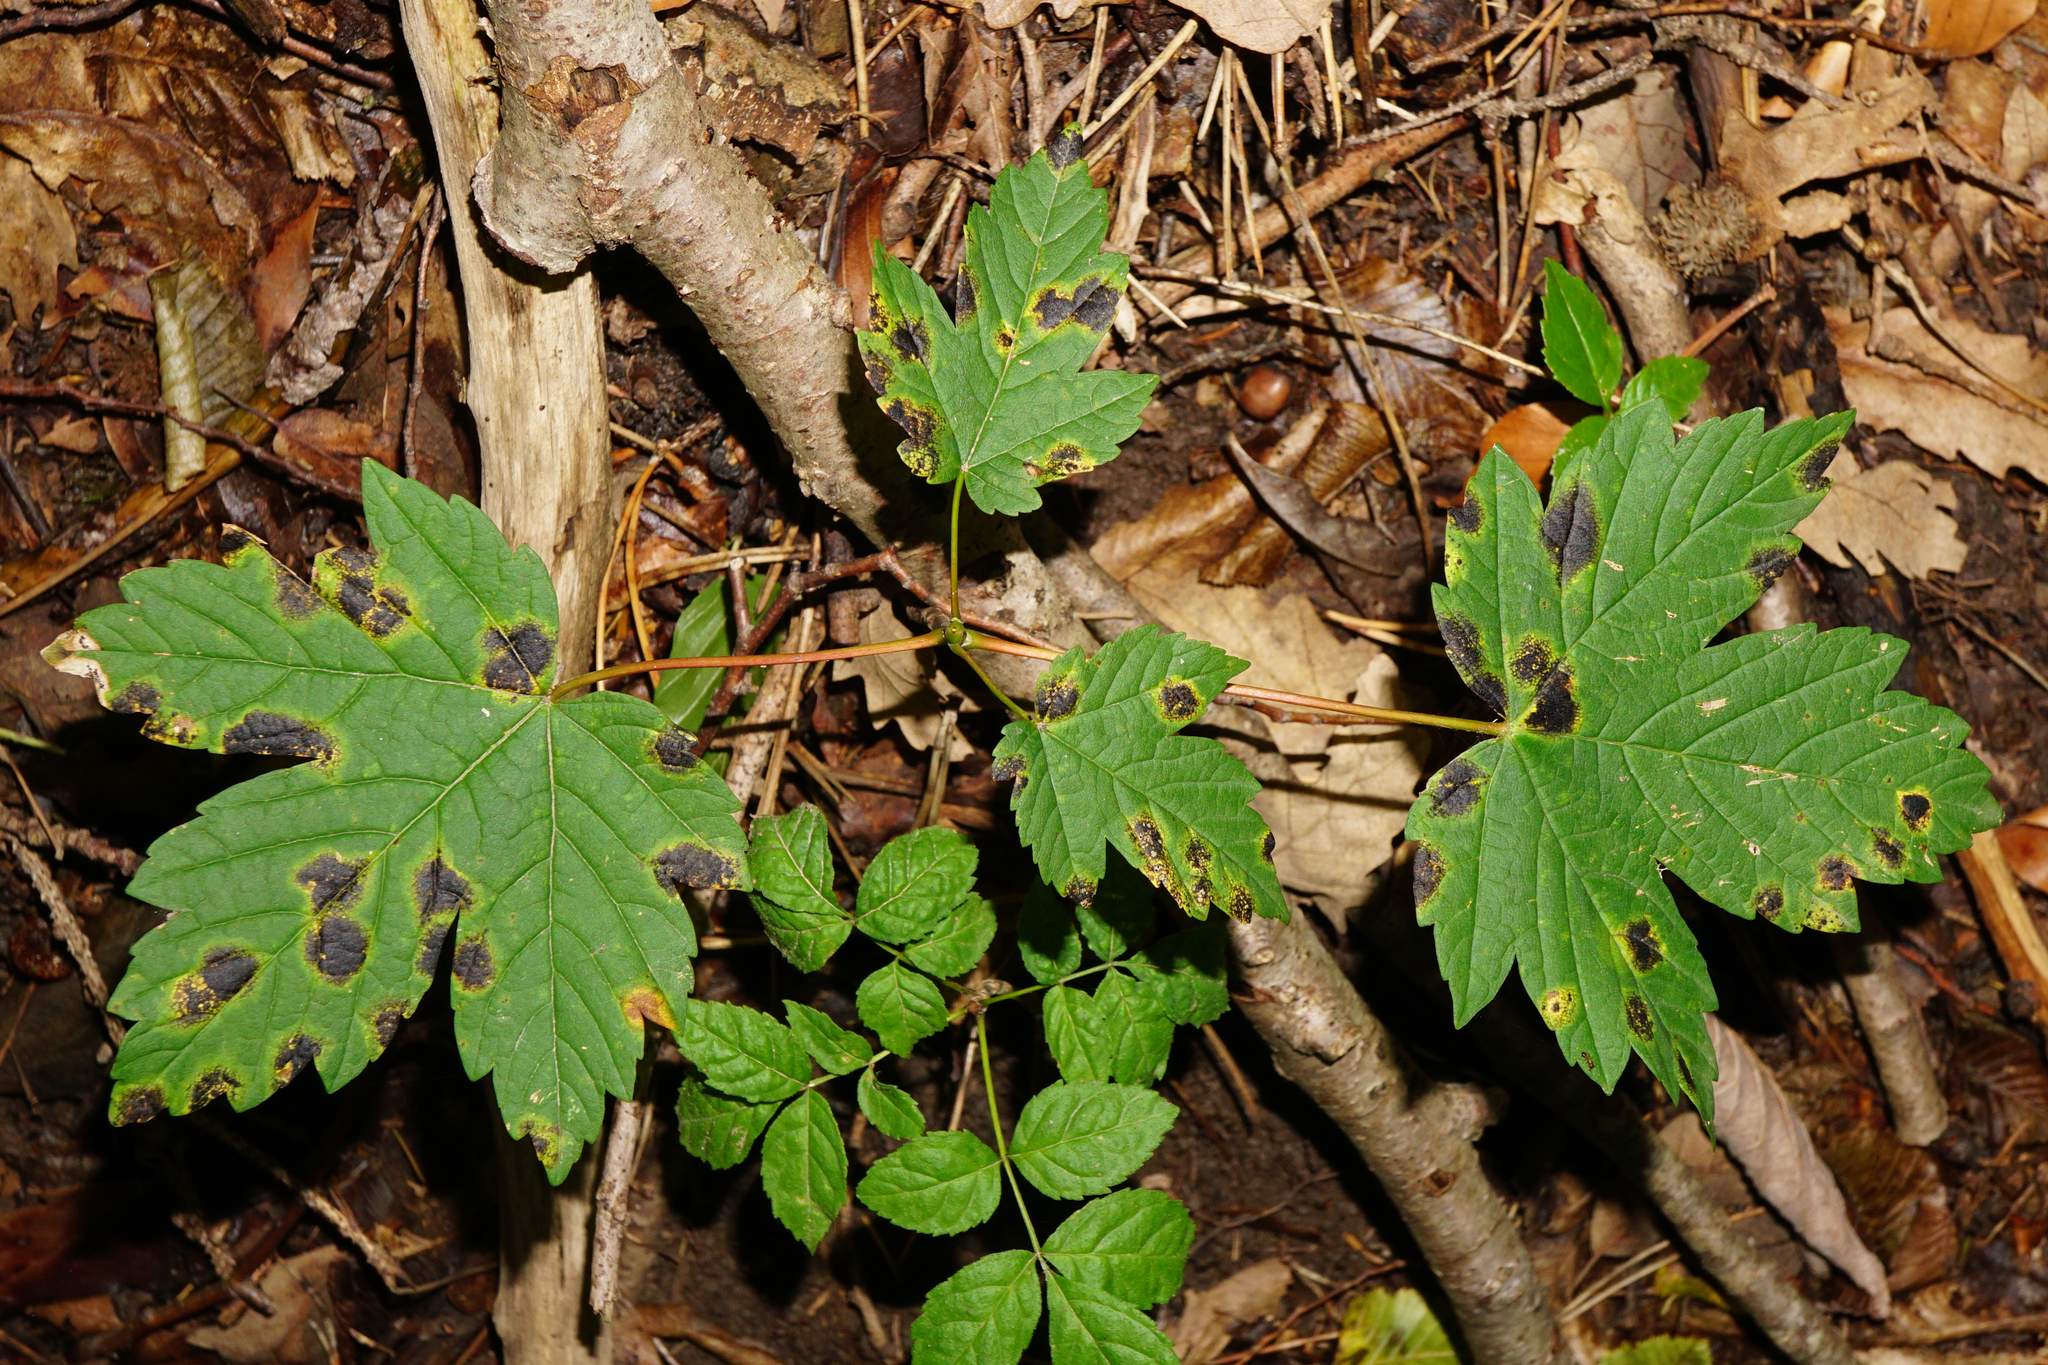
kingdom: Fungi
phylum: Ascomycota
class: Leotiomycetes
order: Rhytismatales
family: Rhytismataceae
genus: Rhytisma
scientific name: Rhytisma acerinum
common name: European tar spot
